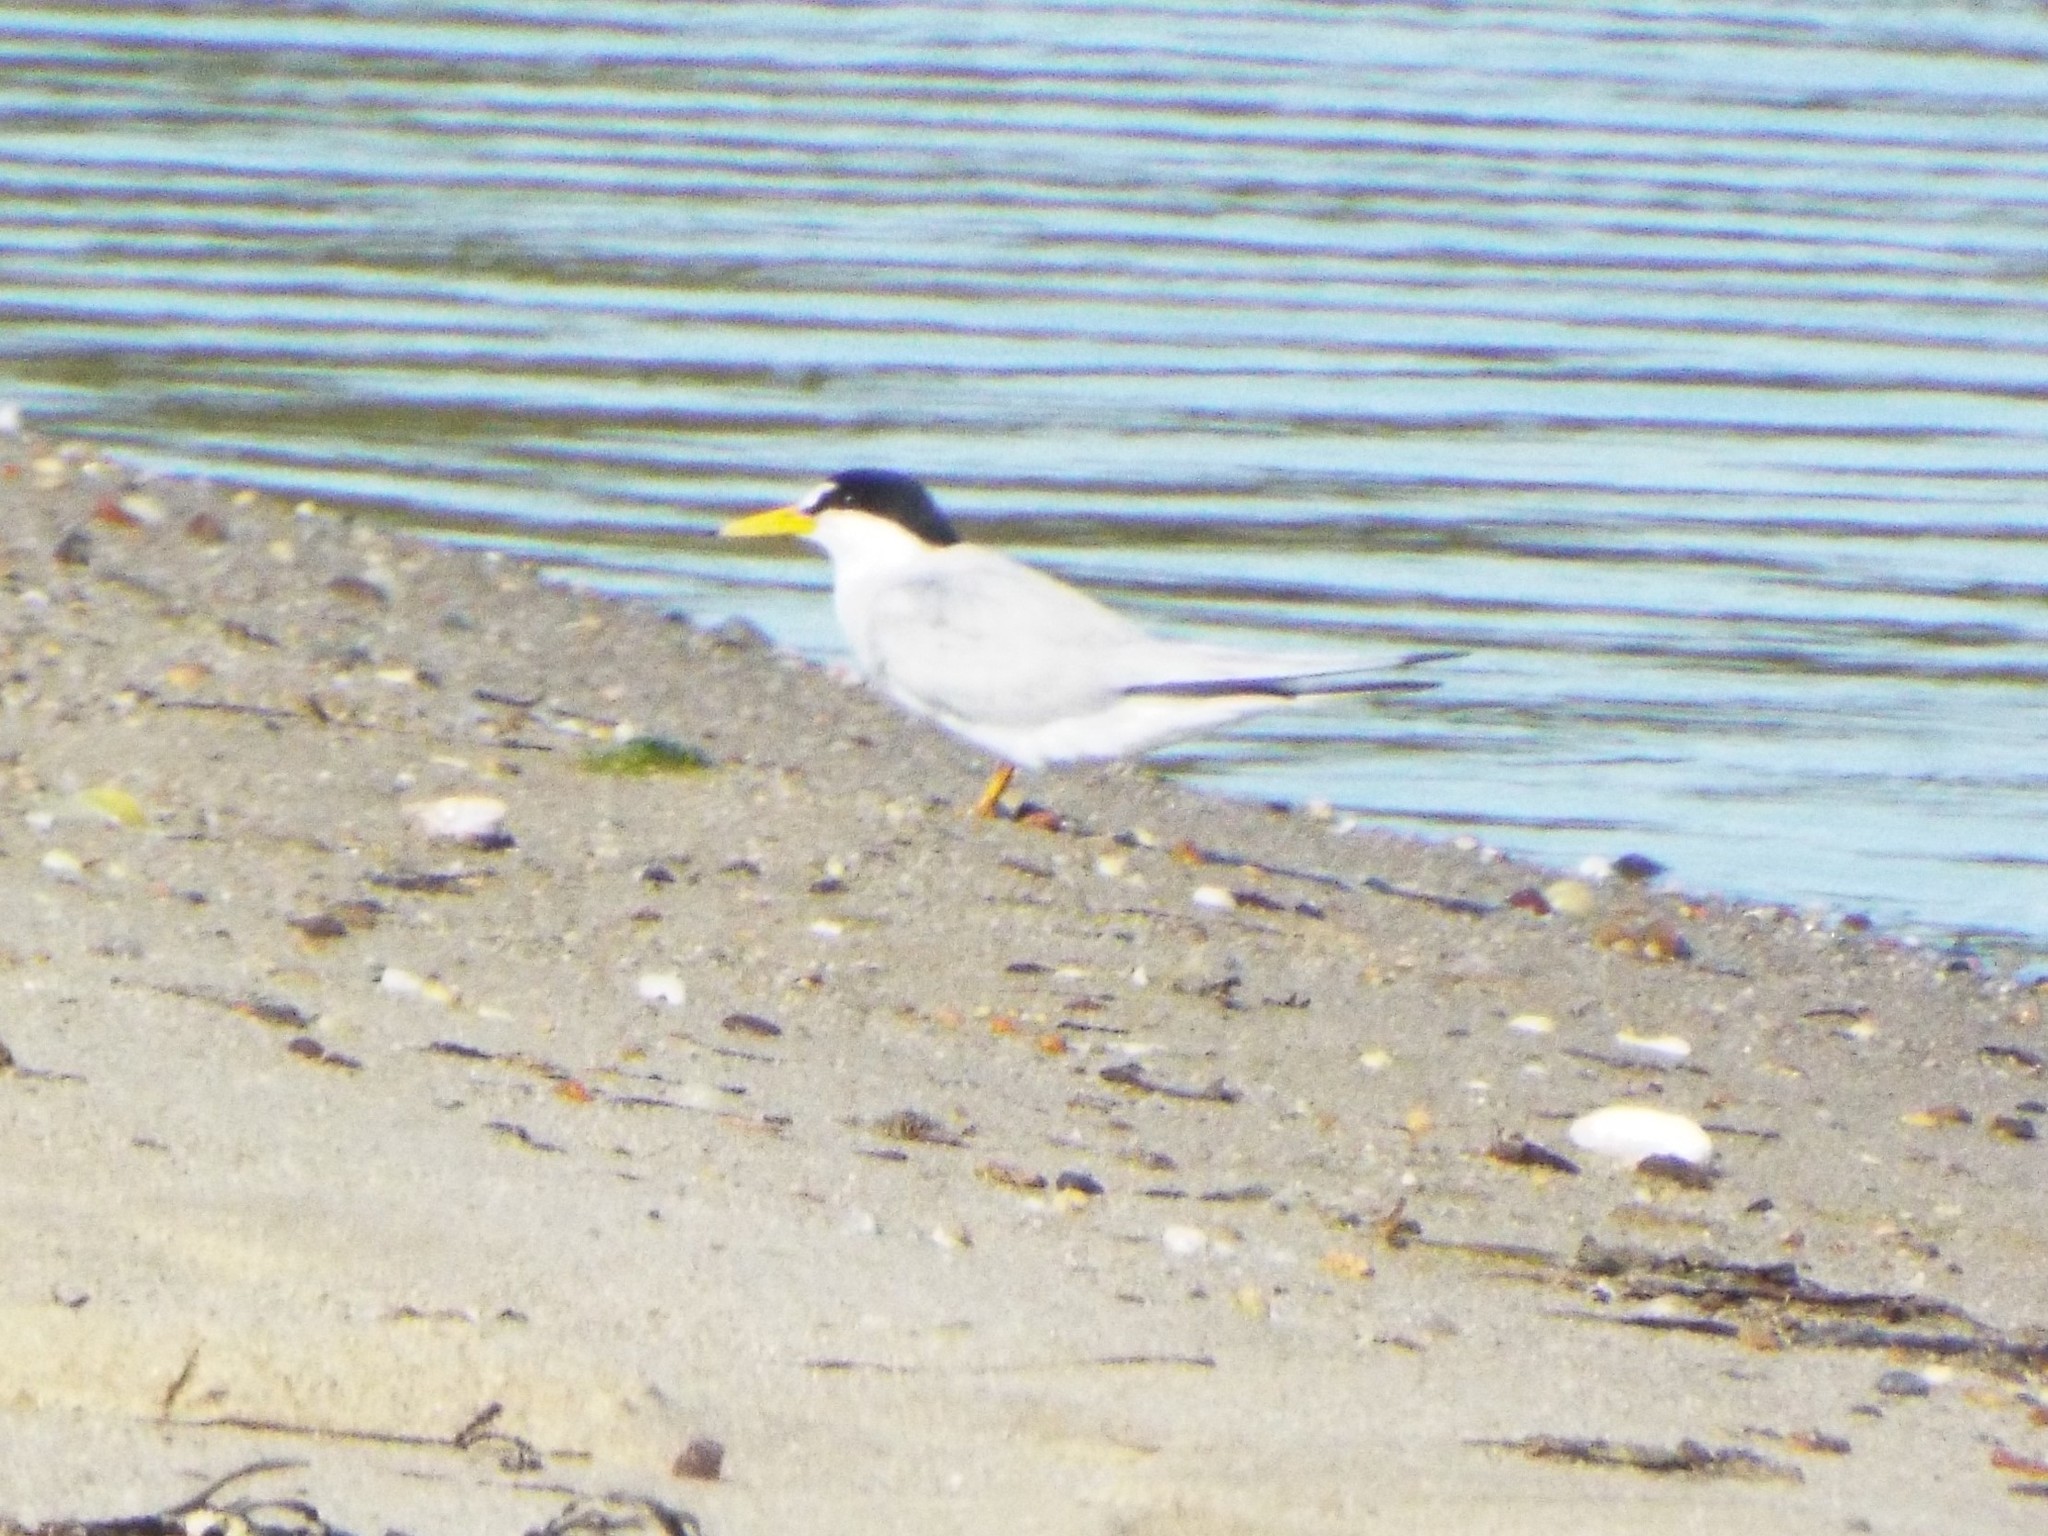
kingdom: Animalia
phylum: Chordata
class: Aves
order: Charadriiformes
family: Laridae
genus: Sternula
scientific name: Sternula antillarum
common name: Least tern
